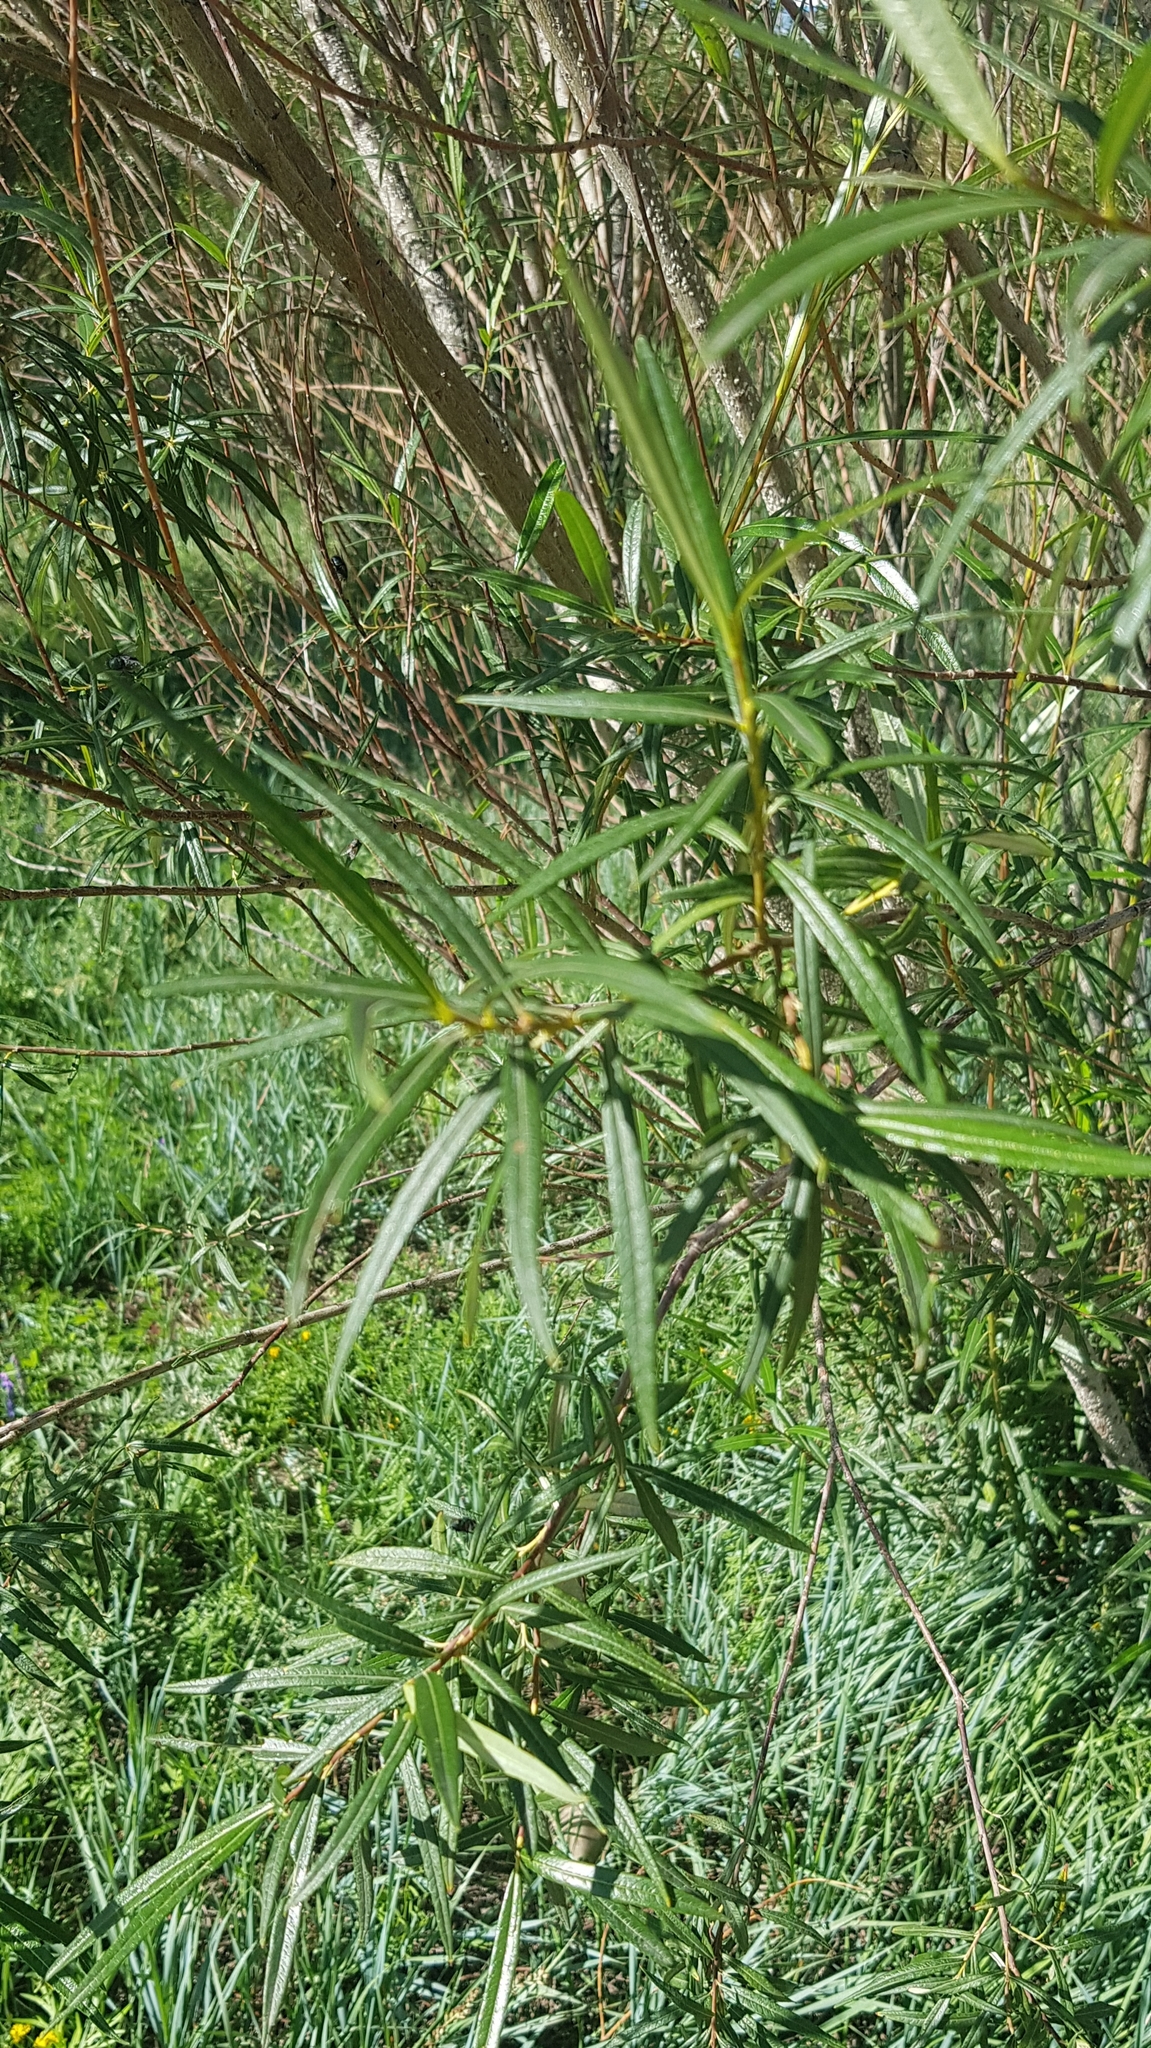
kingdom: Plantae
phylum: Tracheophyta
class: Magnoliopsida
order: Malpighiales
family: Salicaceae
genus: Salix
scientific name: Salix viminalis
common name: Osier
